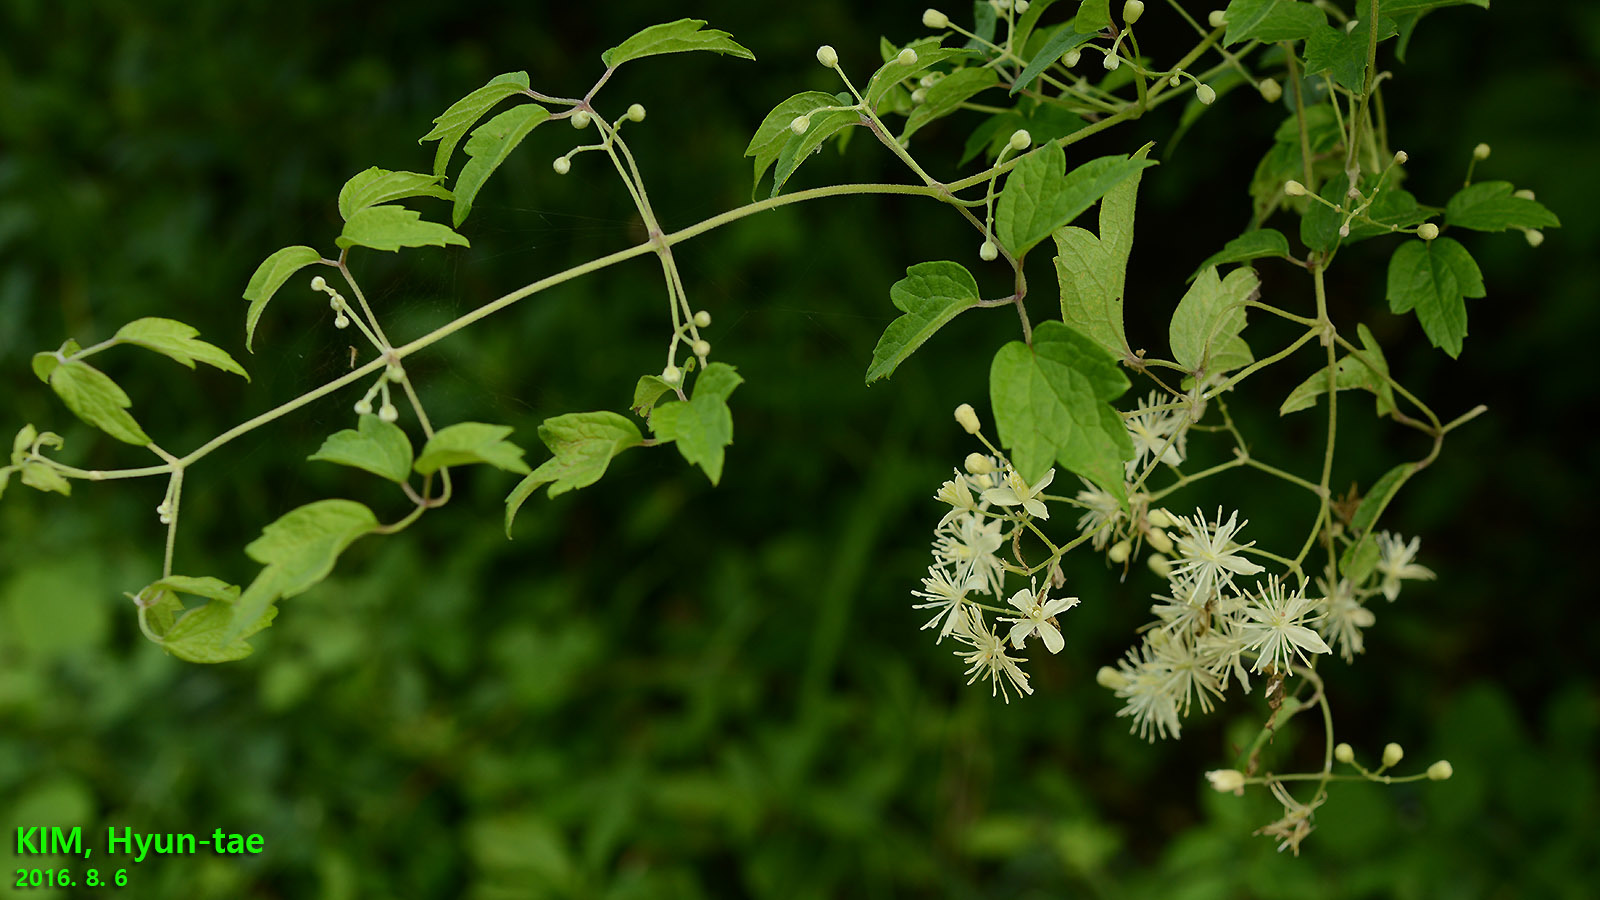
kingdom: Plantae
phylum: Tracheophyta
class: Magnoliopsida
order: Ranunculales
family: Ranunculaceae
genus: Clematis
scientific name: Clematis apiifolia
